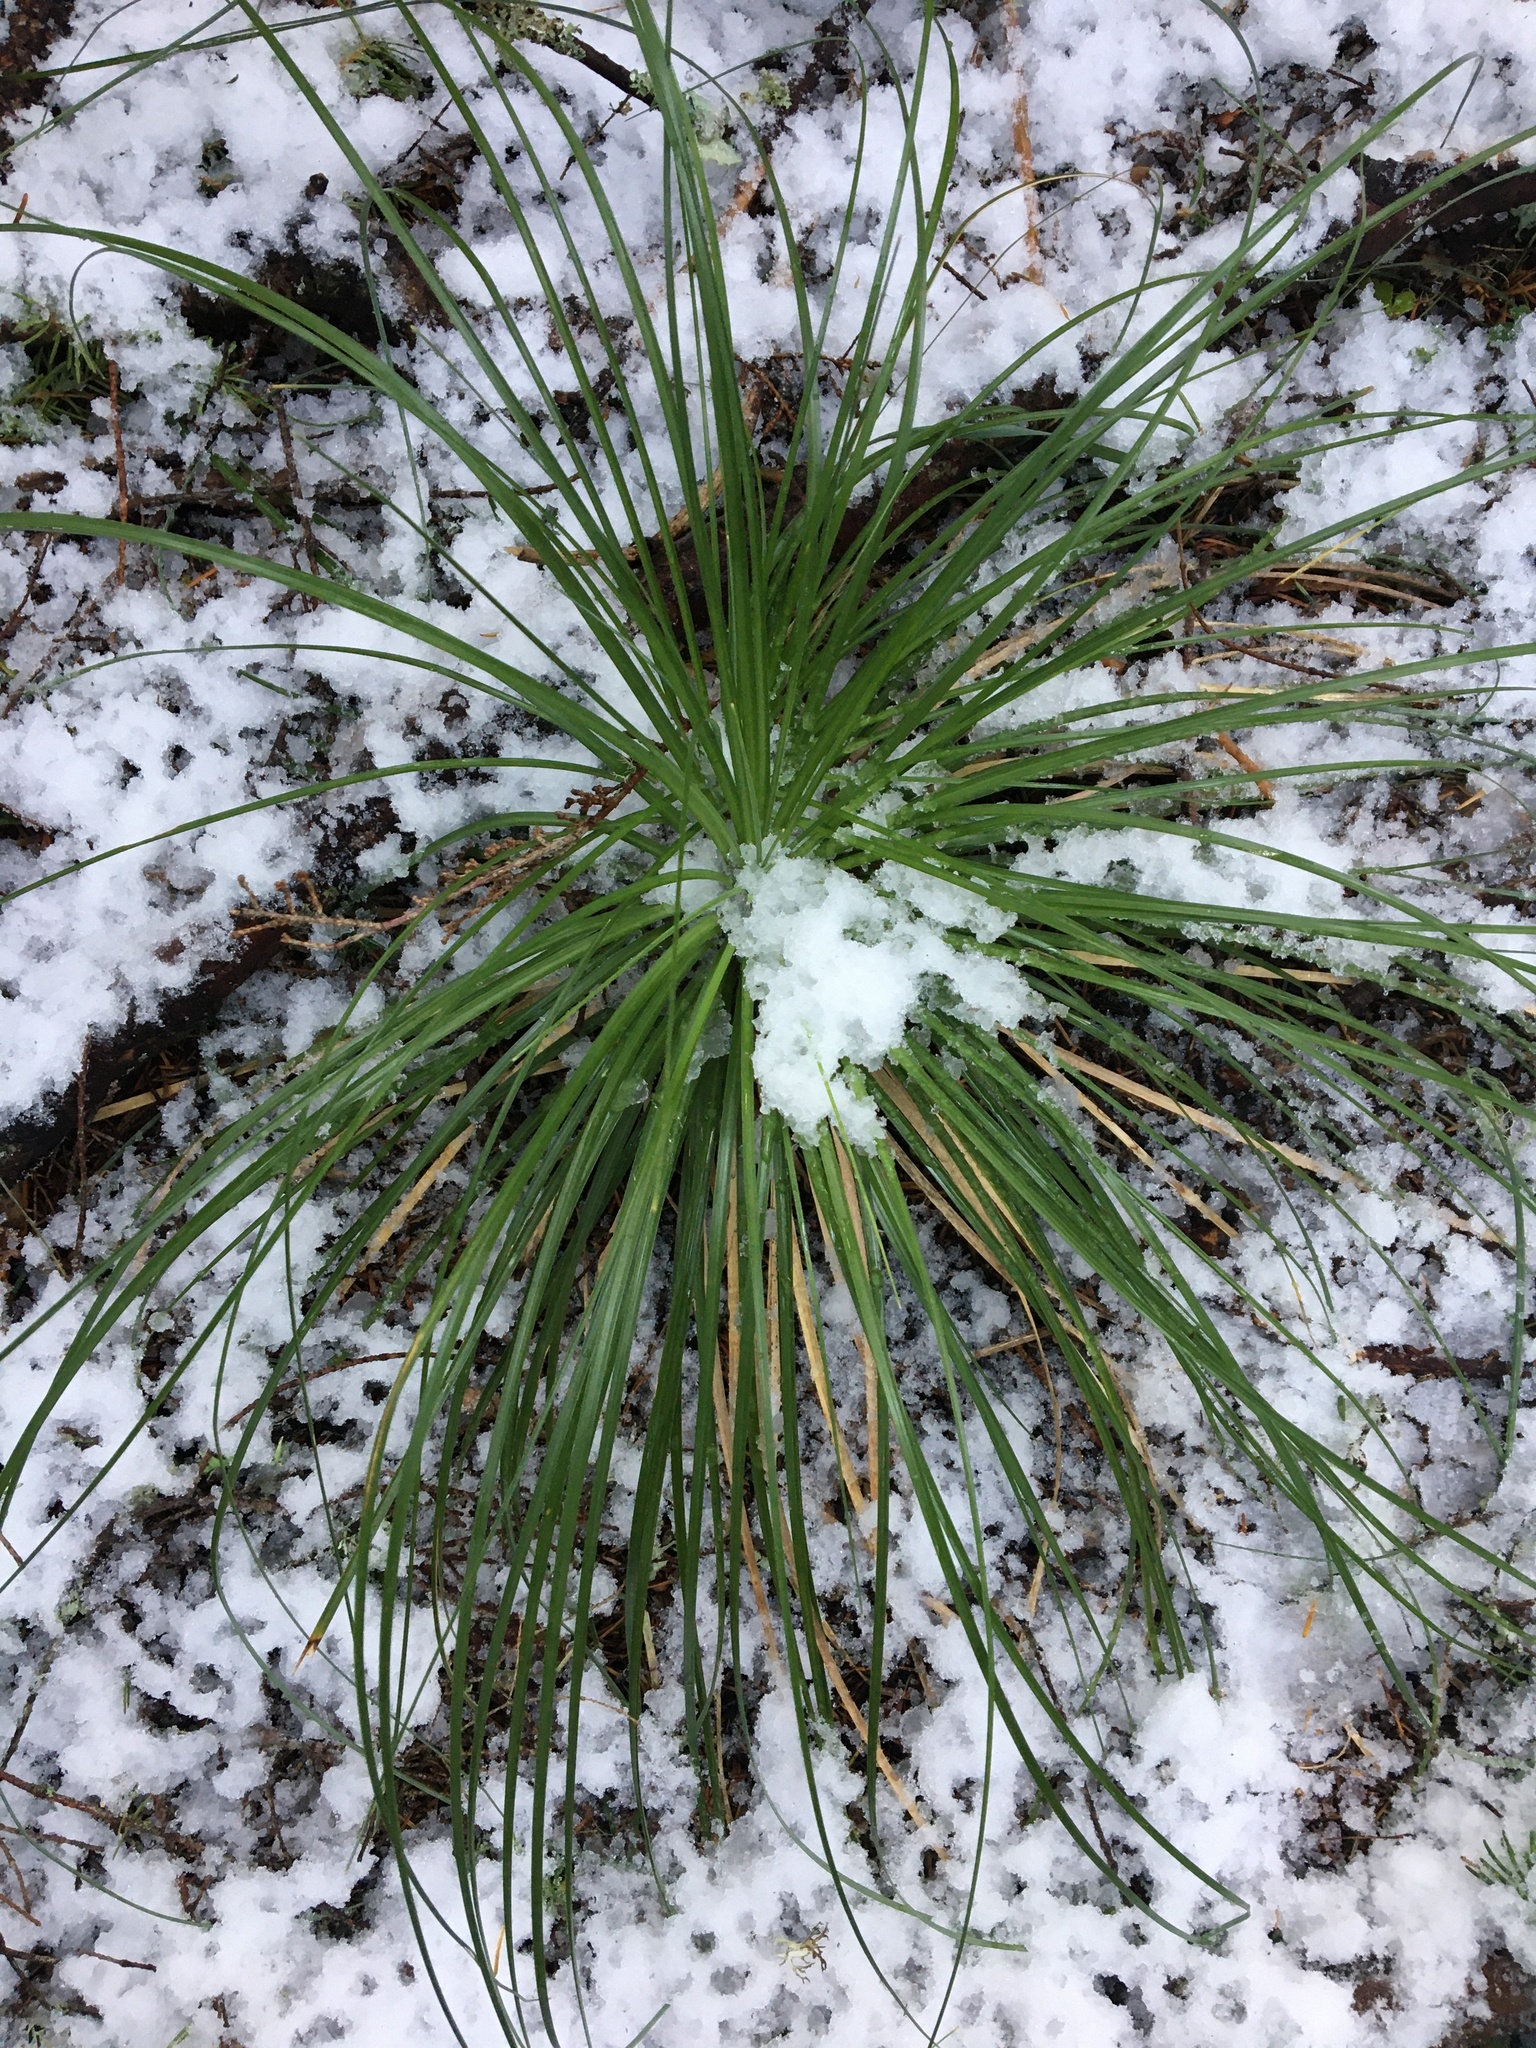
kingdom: Plantae
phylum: Tracheophyta
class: Liliopsida
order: Liliales
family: Melanthiaceae
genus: Xerophyllum
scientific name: Xerophyllum tenax
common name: Bear-grass
